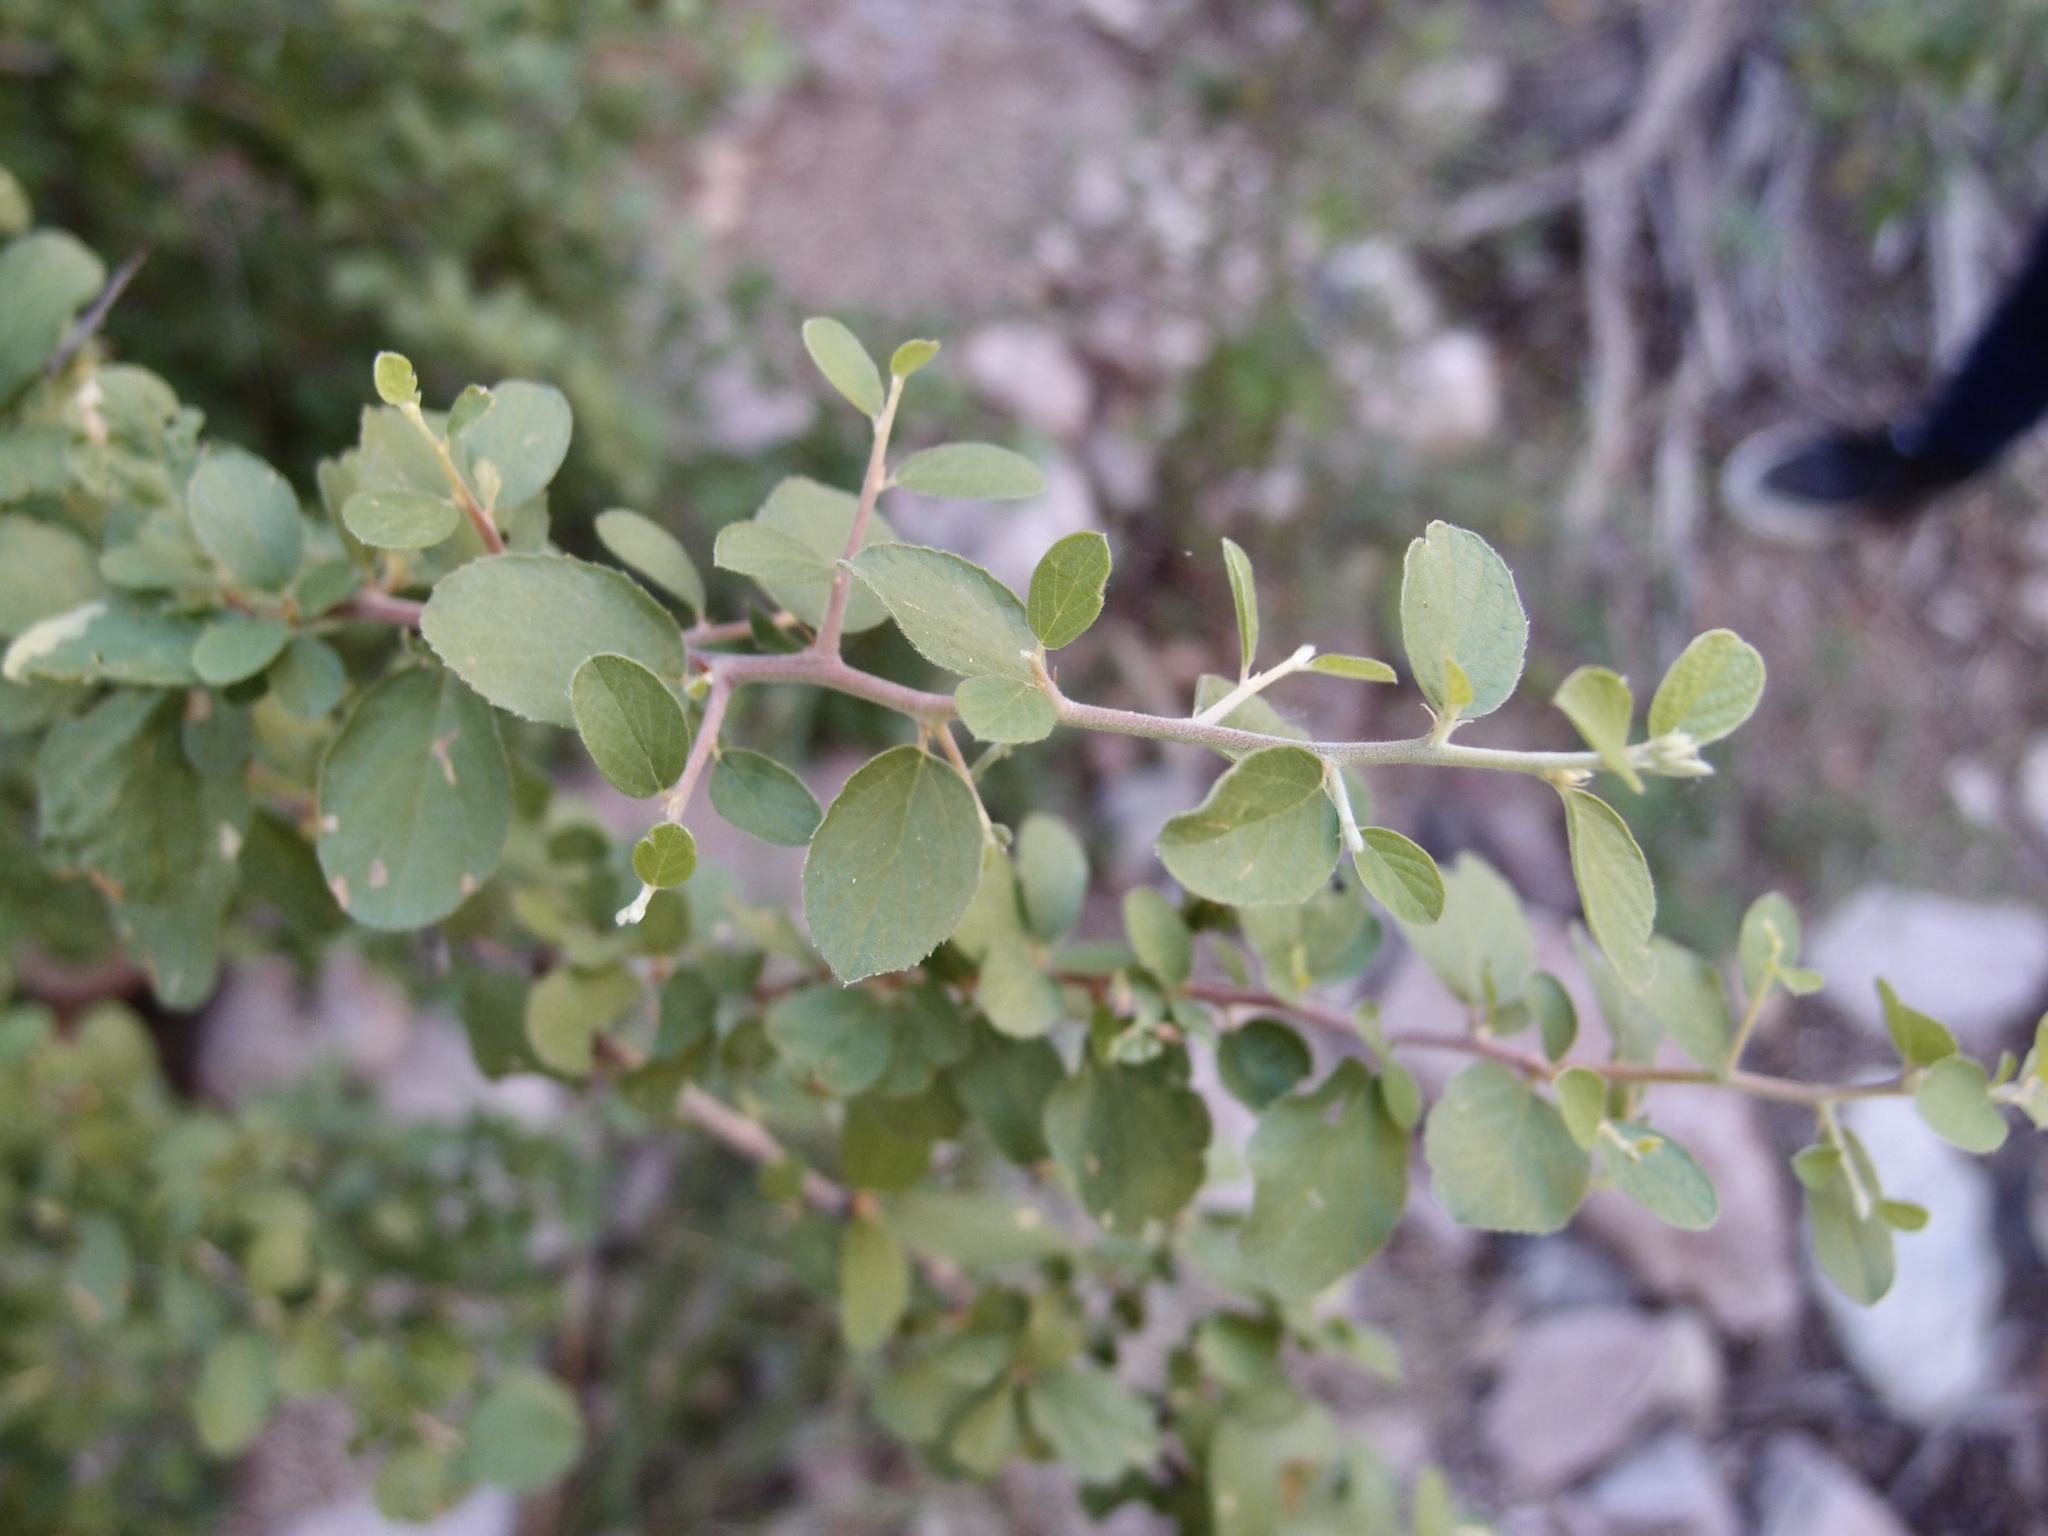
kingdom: Plantae
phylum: Tracheophyta
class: Magnoliopsida
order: Rosales
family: Rhamnaceae
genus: Colubrina
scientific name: Colubrina californica
